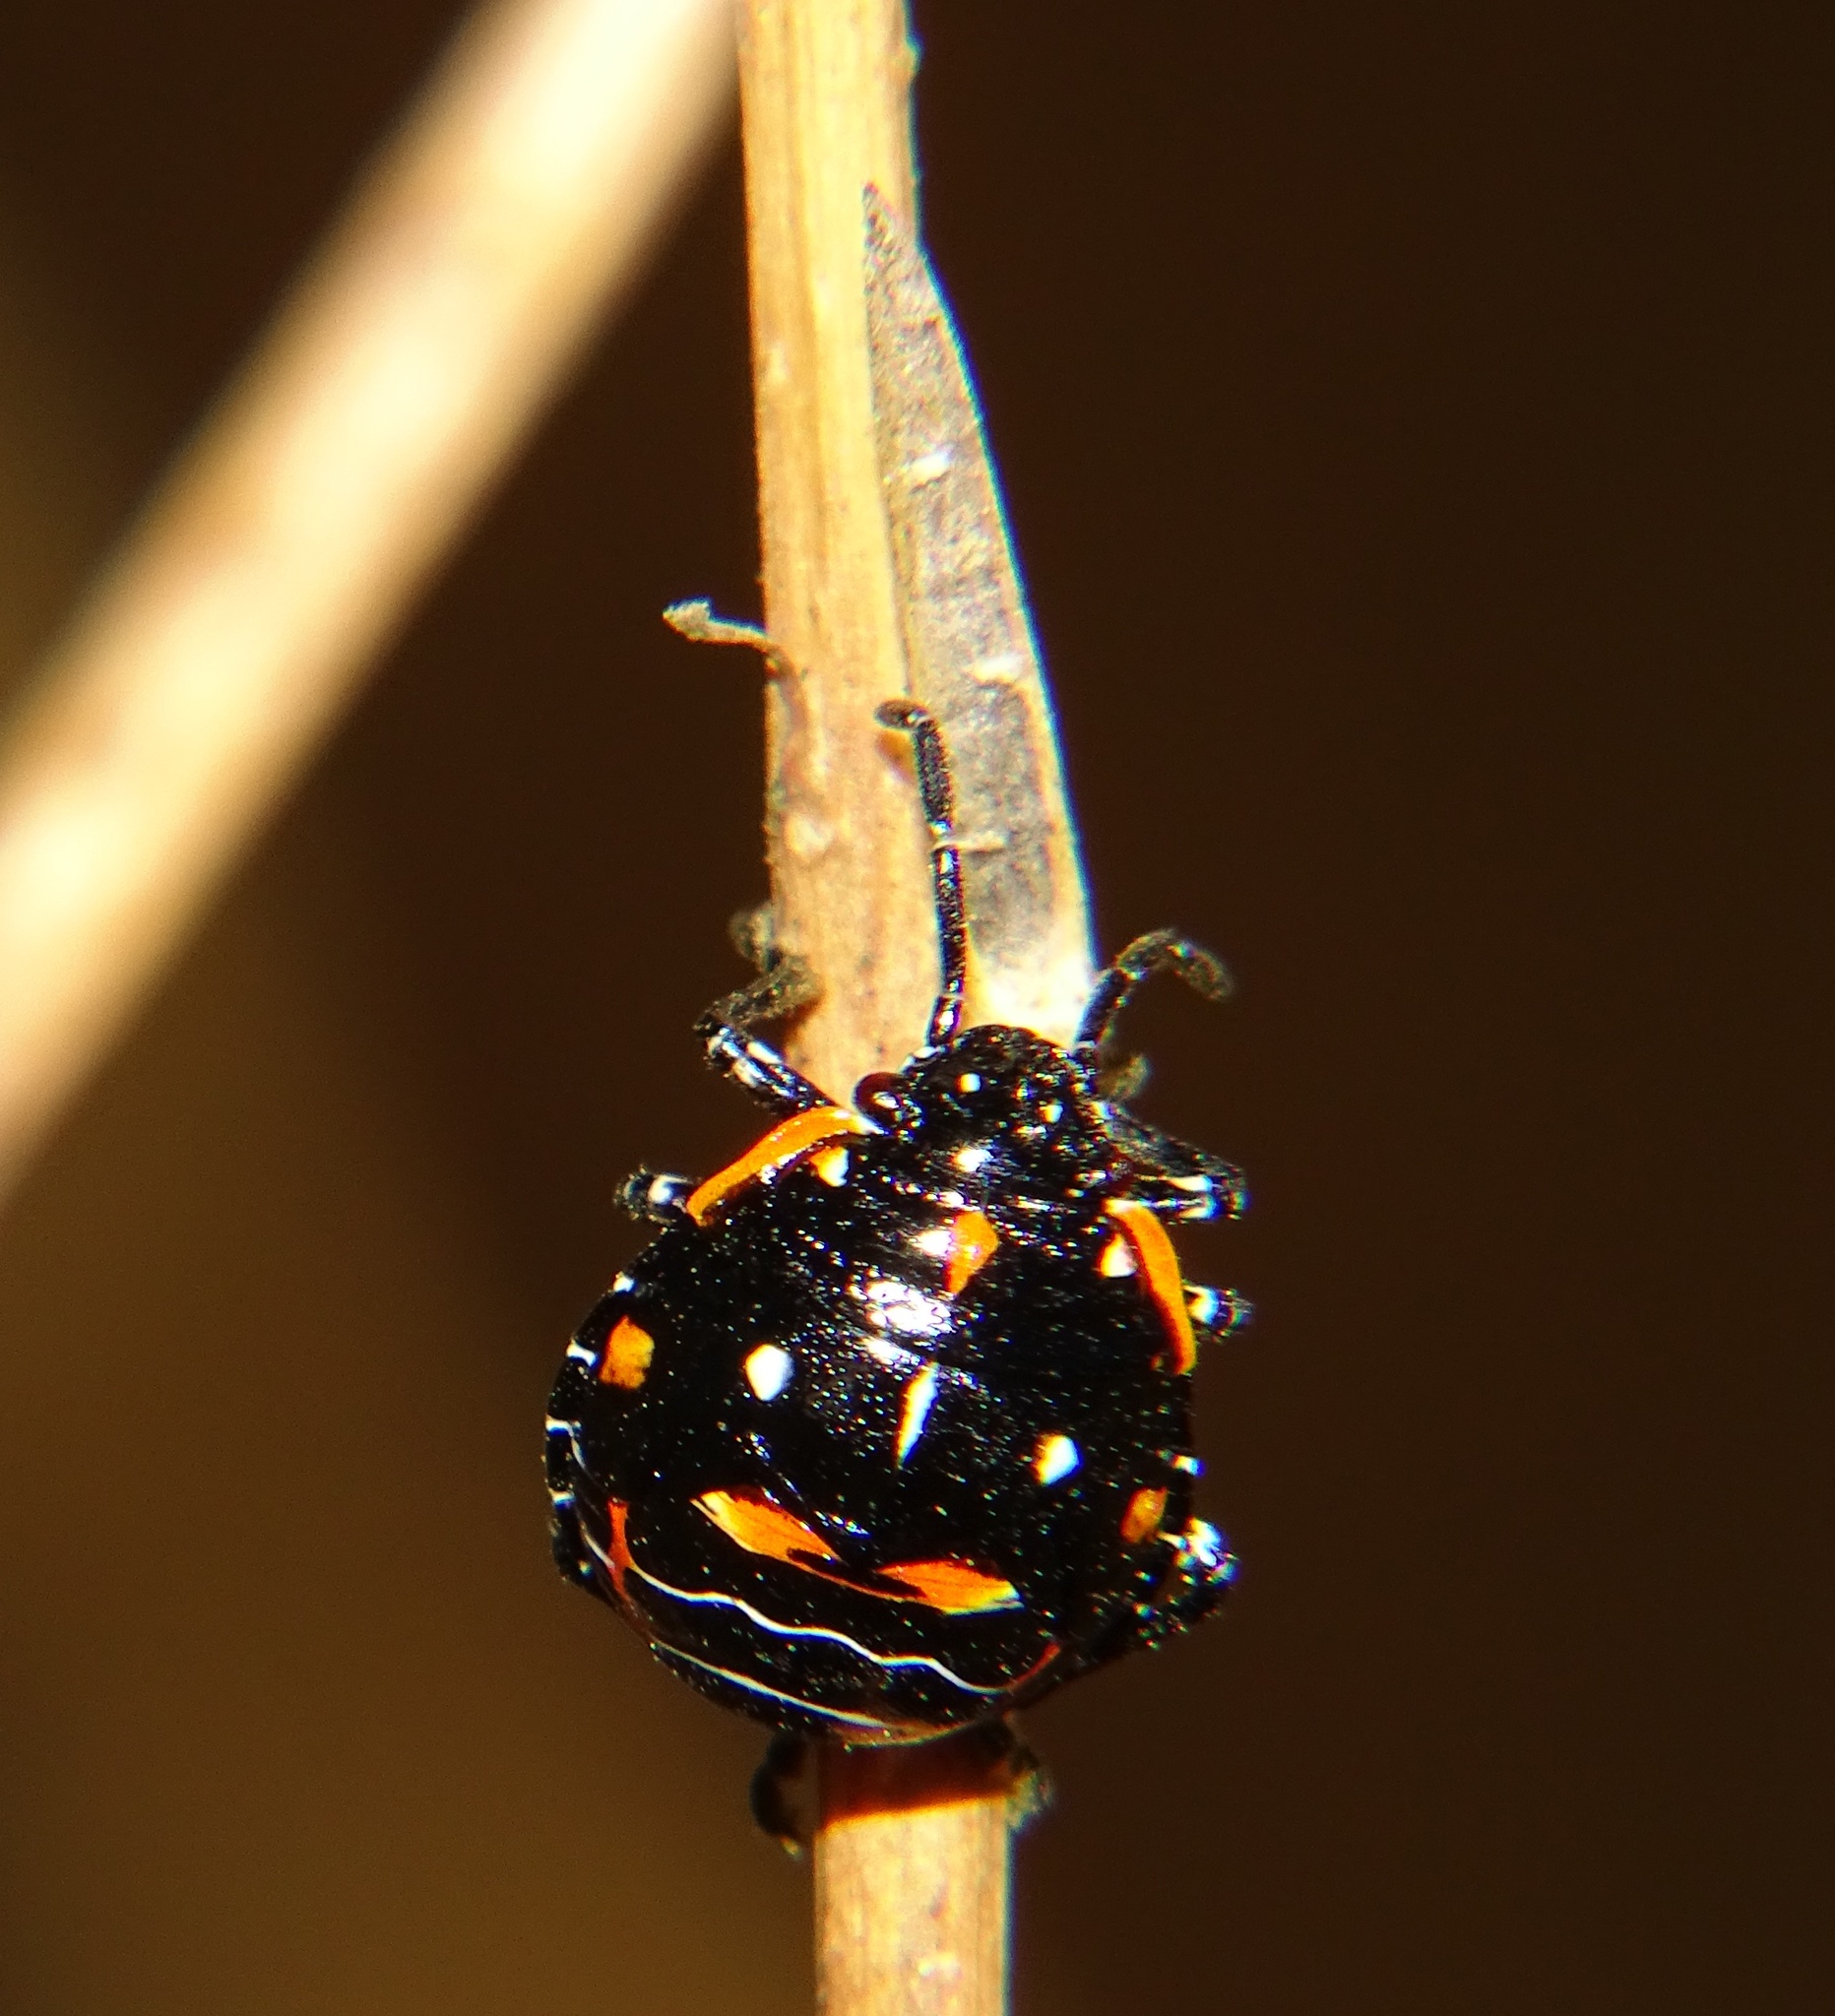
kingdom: Animalia
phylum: Arthropoda
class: Insecta
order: Hemiptera
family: Pentatomidae
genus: Murgantia
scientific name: Murgantia histrionica
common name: Harlequin bug
